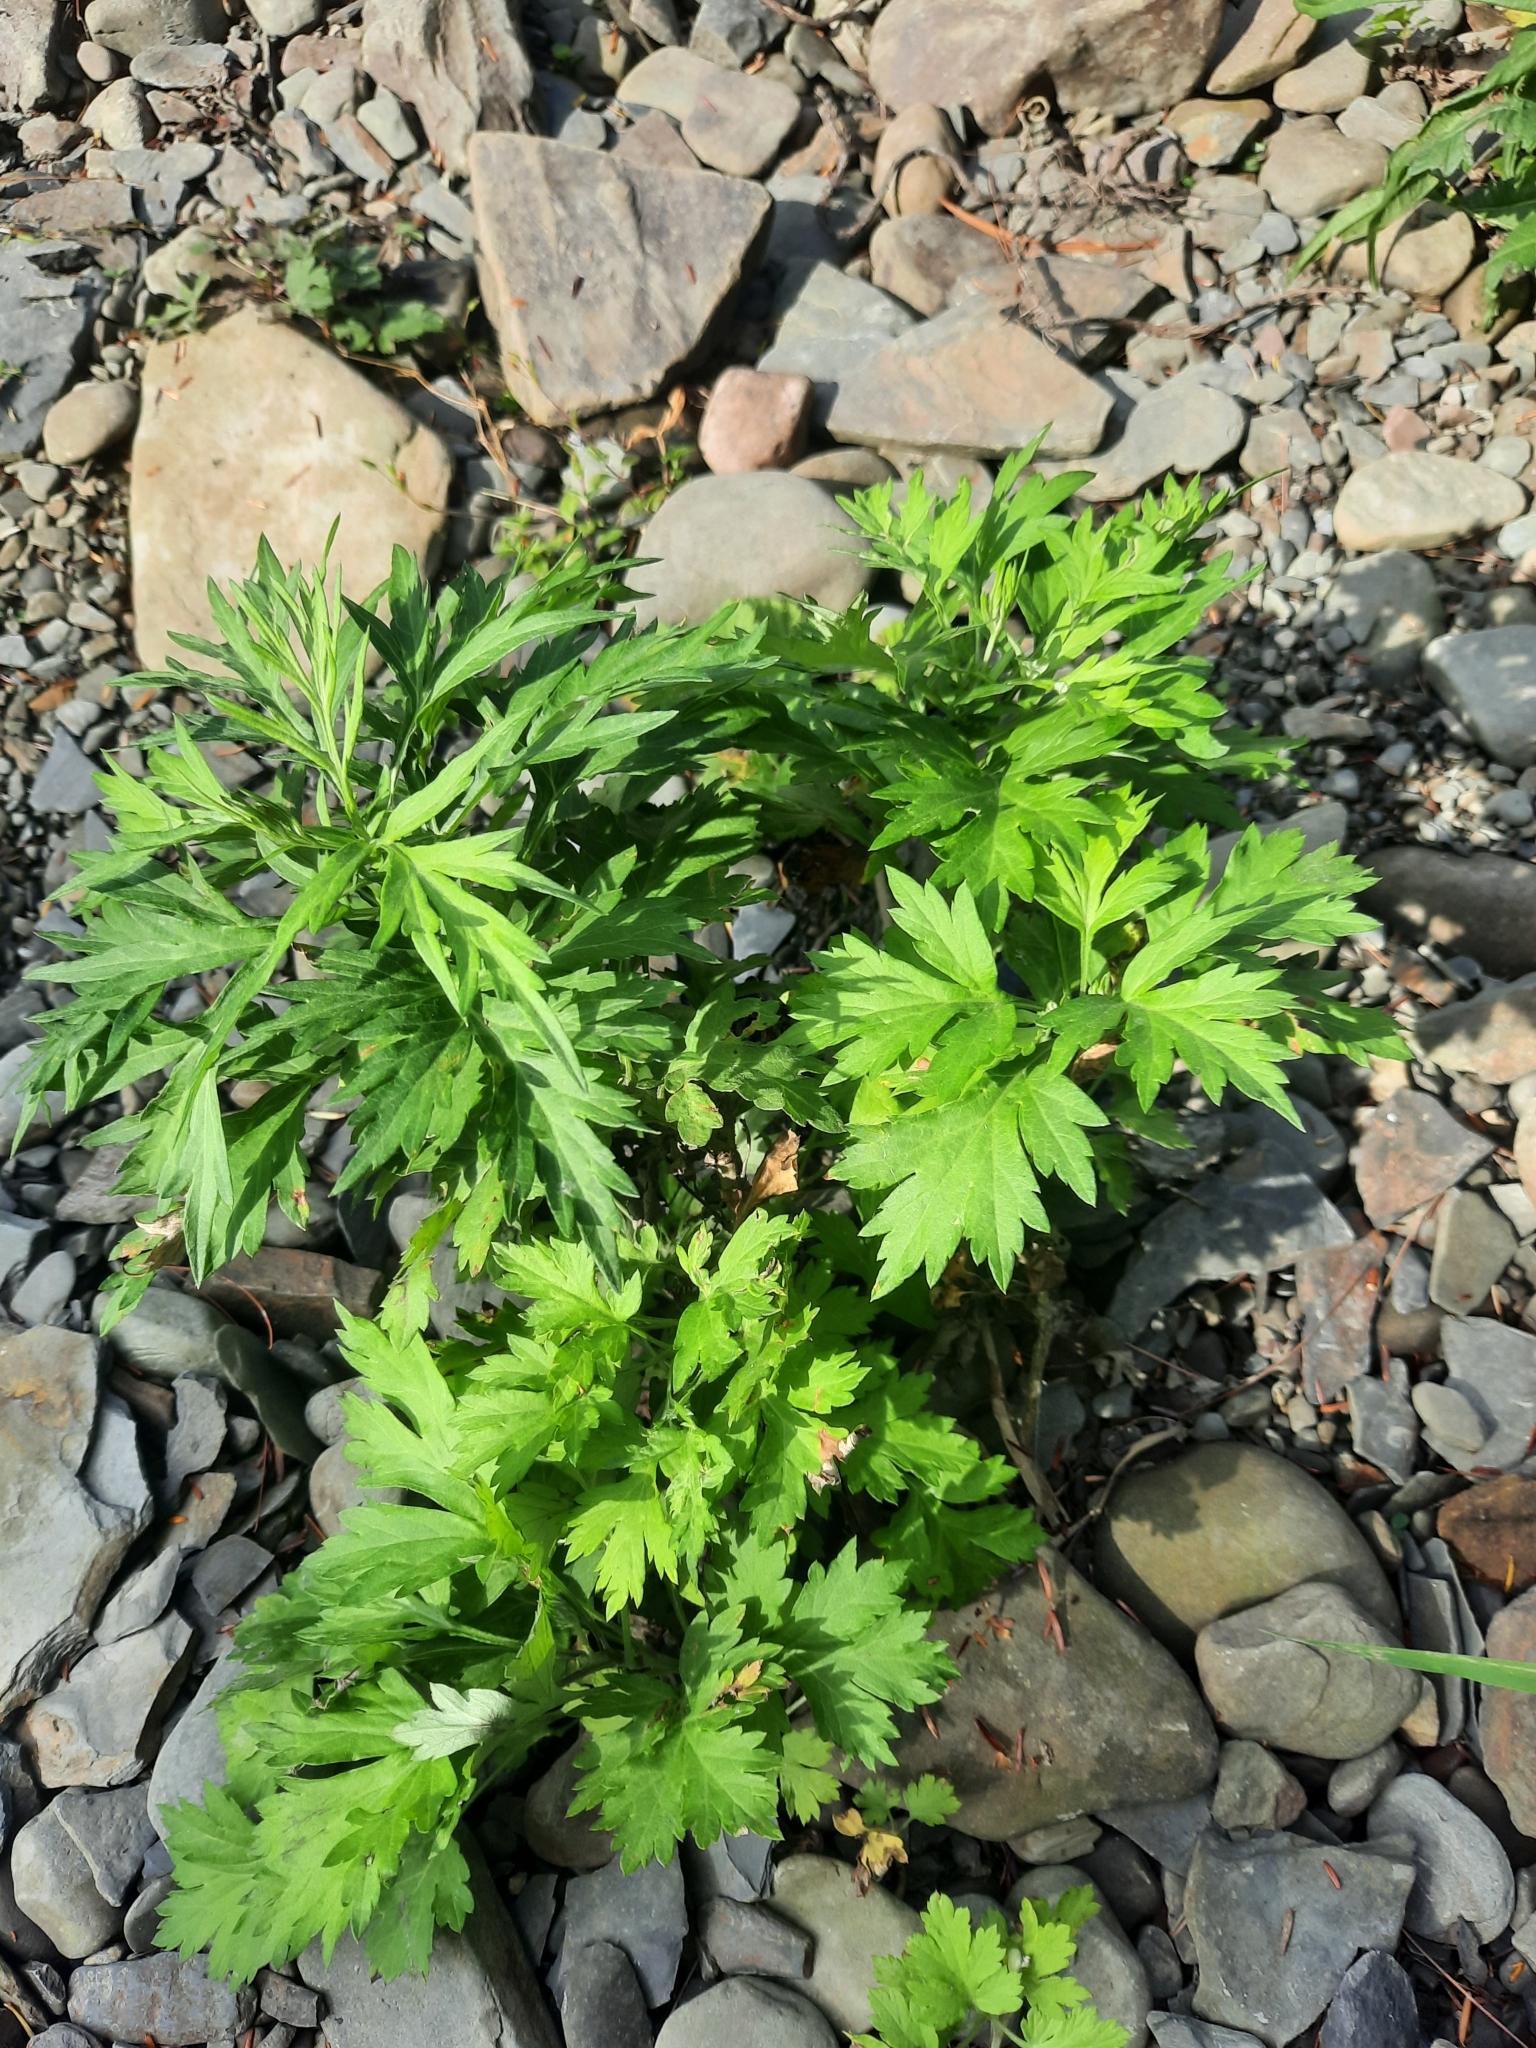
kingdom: Plantae
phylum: Tracheophyta
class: Magnoliopsida
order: Asterales
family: Asteraceae
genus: Artemisia
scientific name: Artemisia vulgaris
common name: Mugwort
